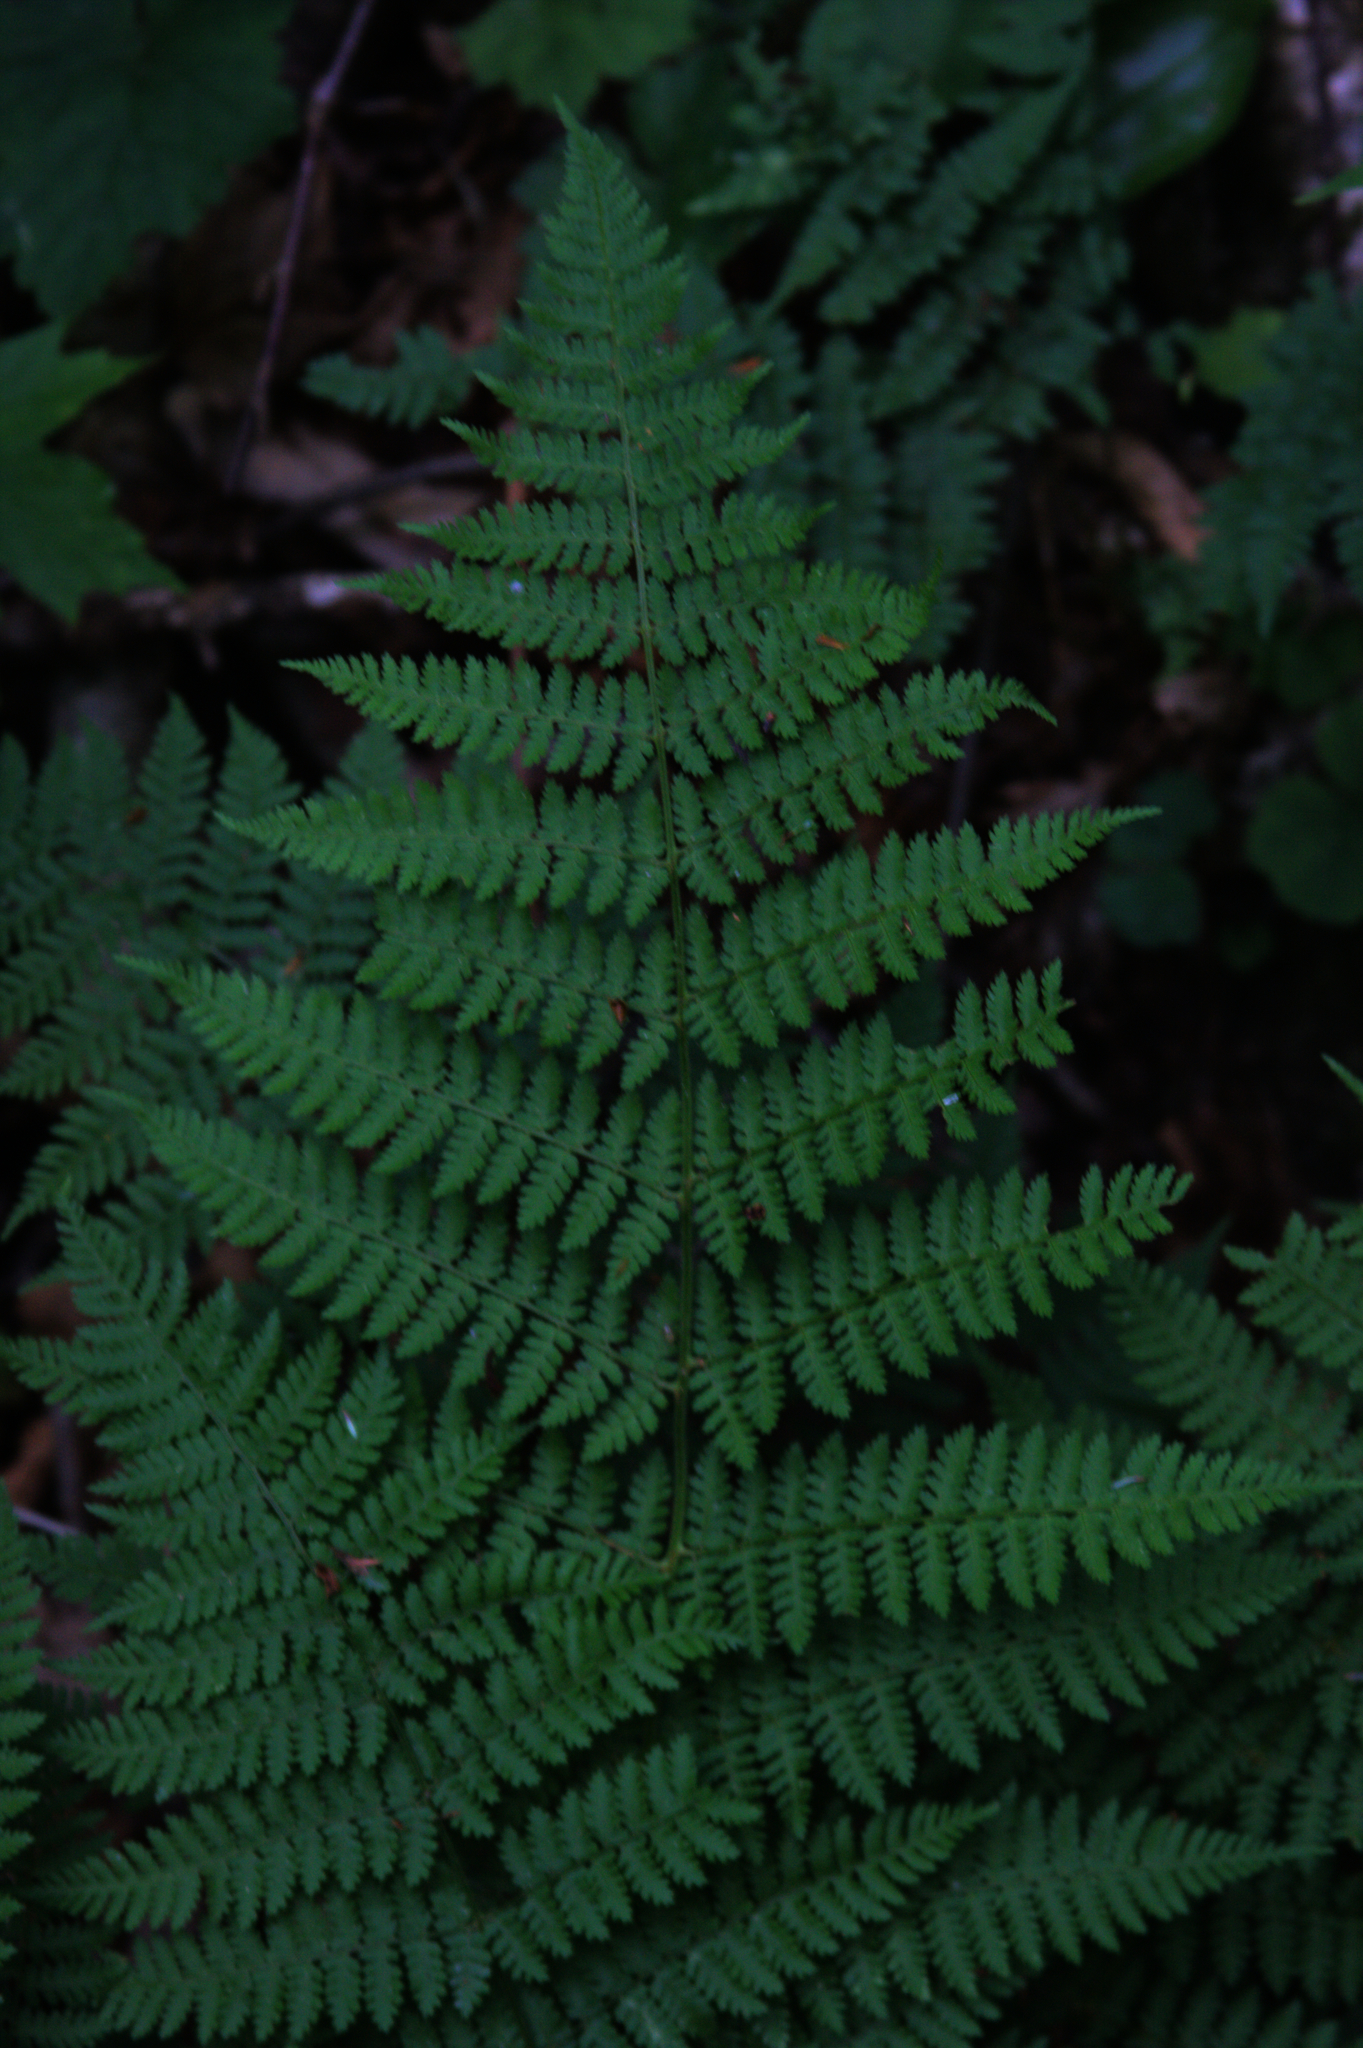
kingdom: Plantae
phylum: Tracheophyta
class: Polypodiopsida
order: Polypodiales
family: Dryopteridaceae
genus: Dryopteris
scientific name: Dryopteris intermedia
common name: Evergreen wood fern
